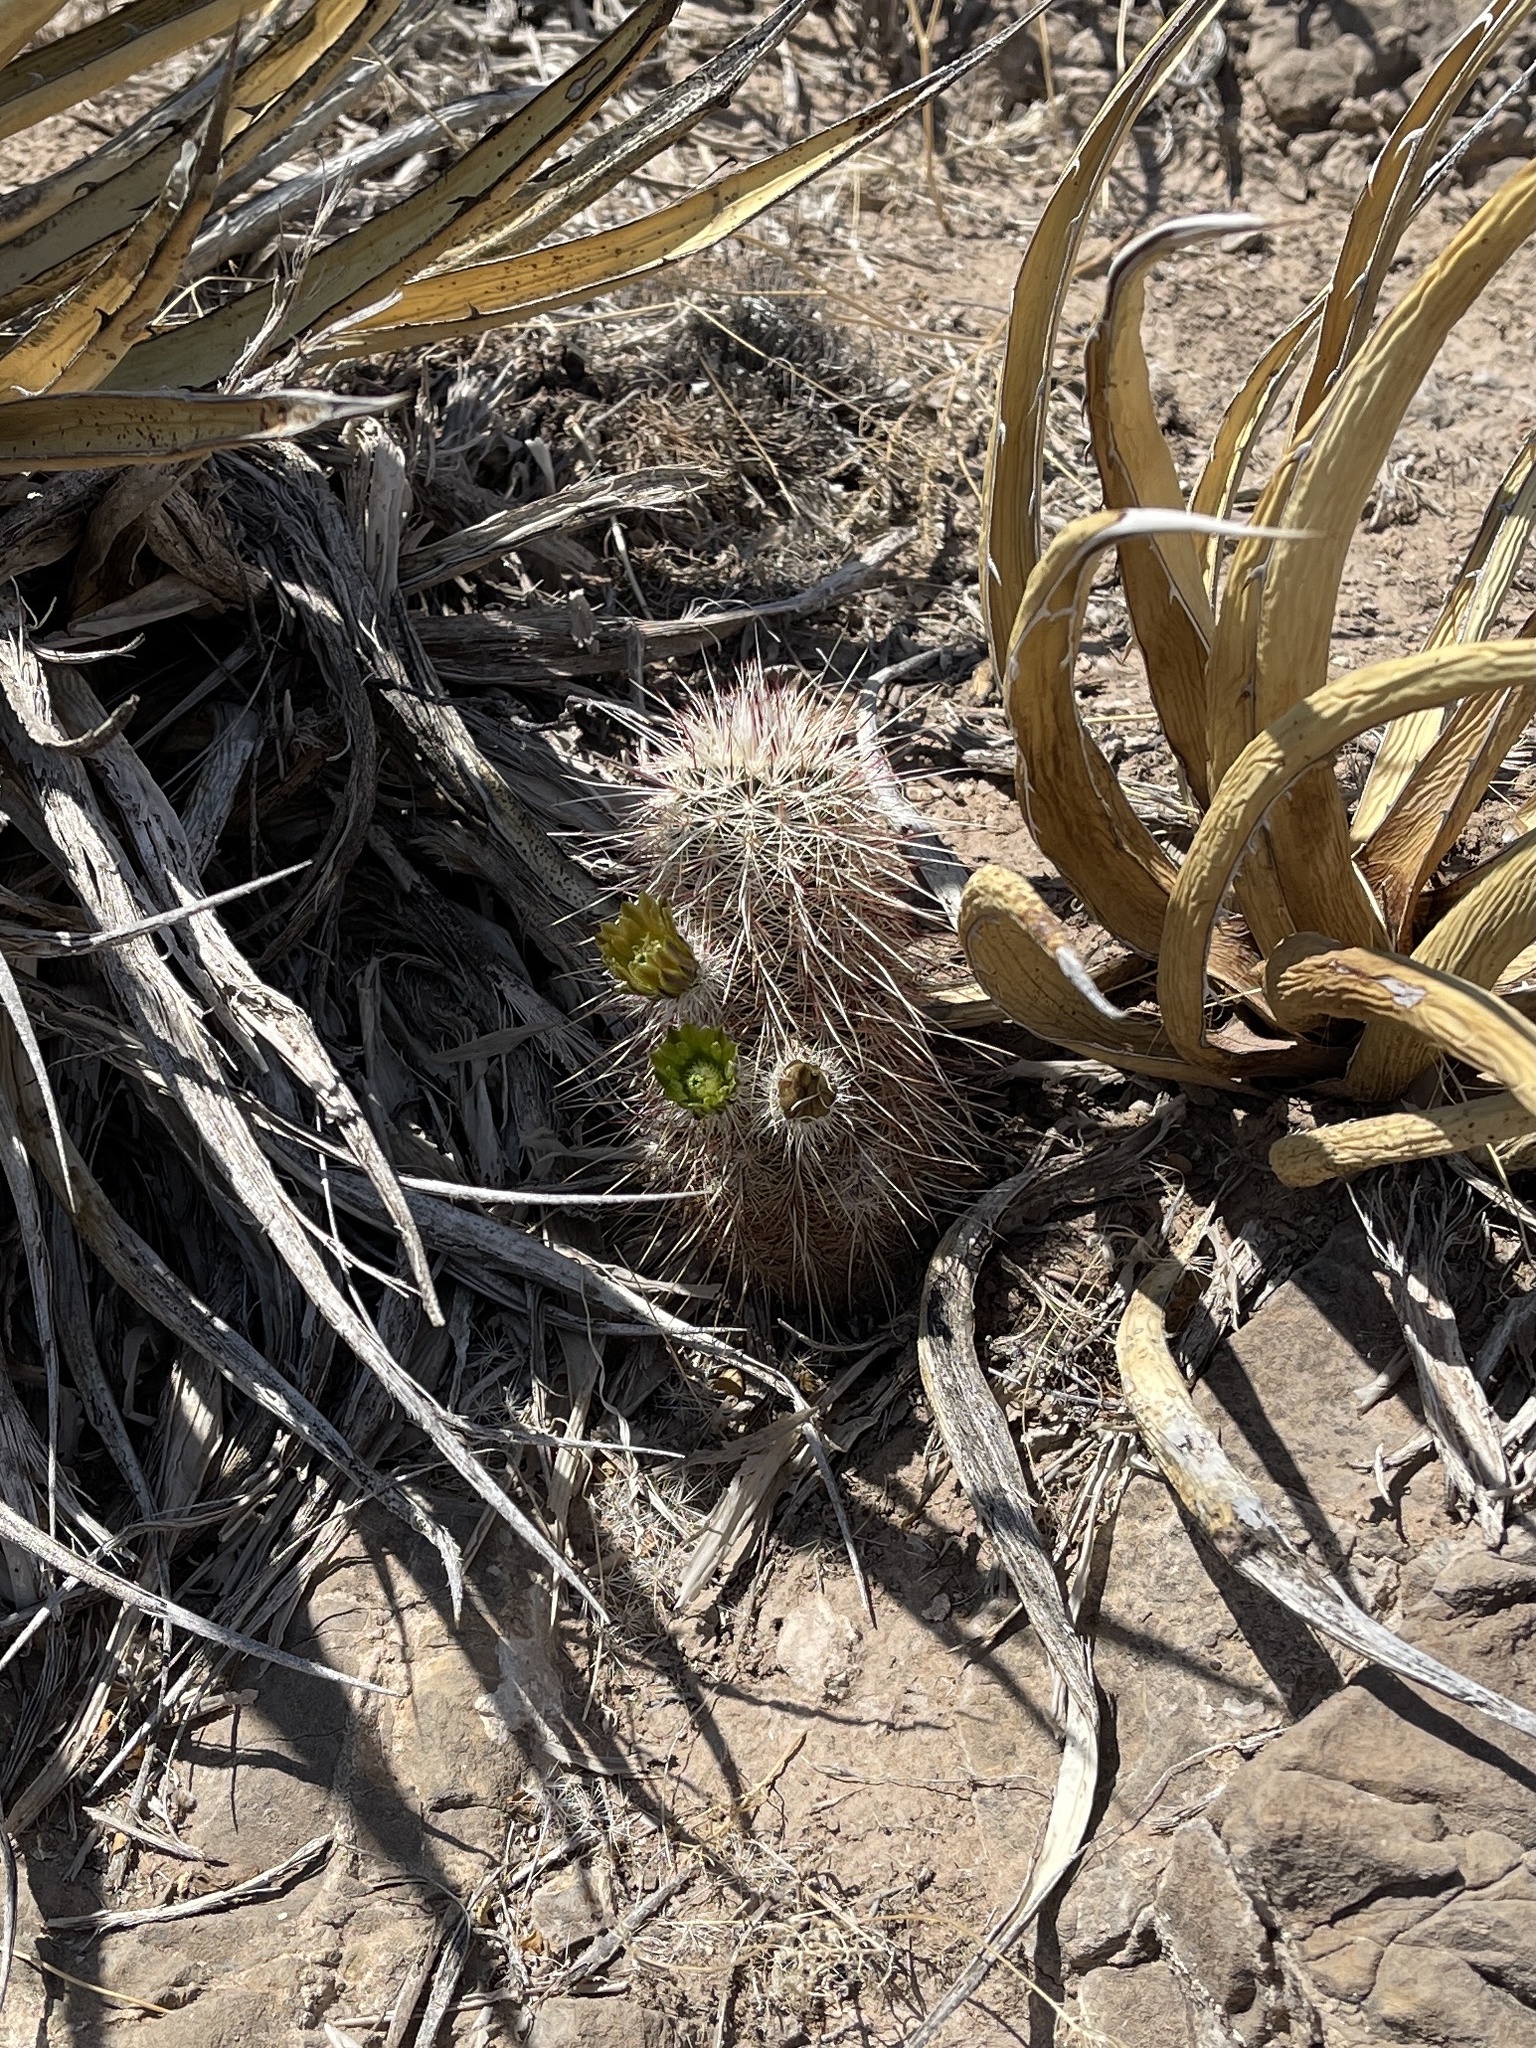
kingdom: Plantae
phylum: Tracheophyta
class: Magnoliopsida
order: Caryophyllales
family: Cactaceae
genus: Echinocereus
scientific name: Echinocereus viridiflorus
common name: Nylon hedgehog cactus
